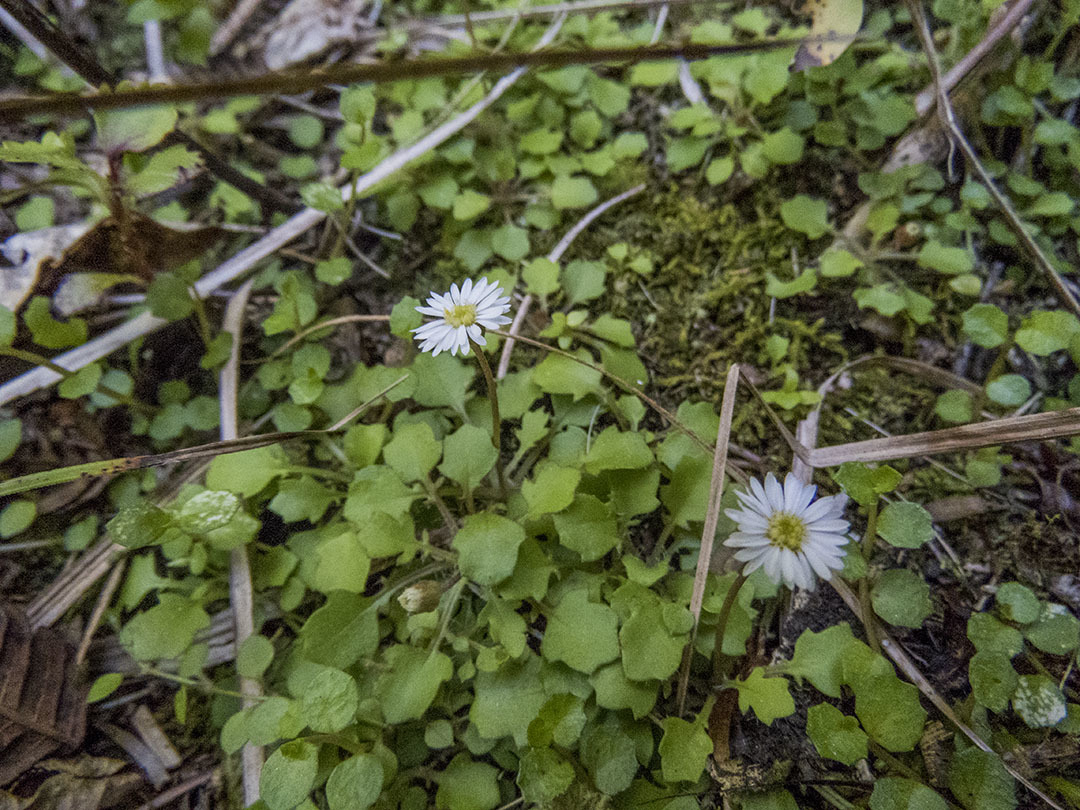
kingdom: Plantae
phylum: Tracheophyta
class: Magnoliopsida
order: Asterales
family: Asteraceae
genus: Lagenophora
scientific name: Lagenophora pumila
